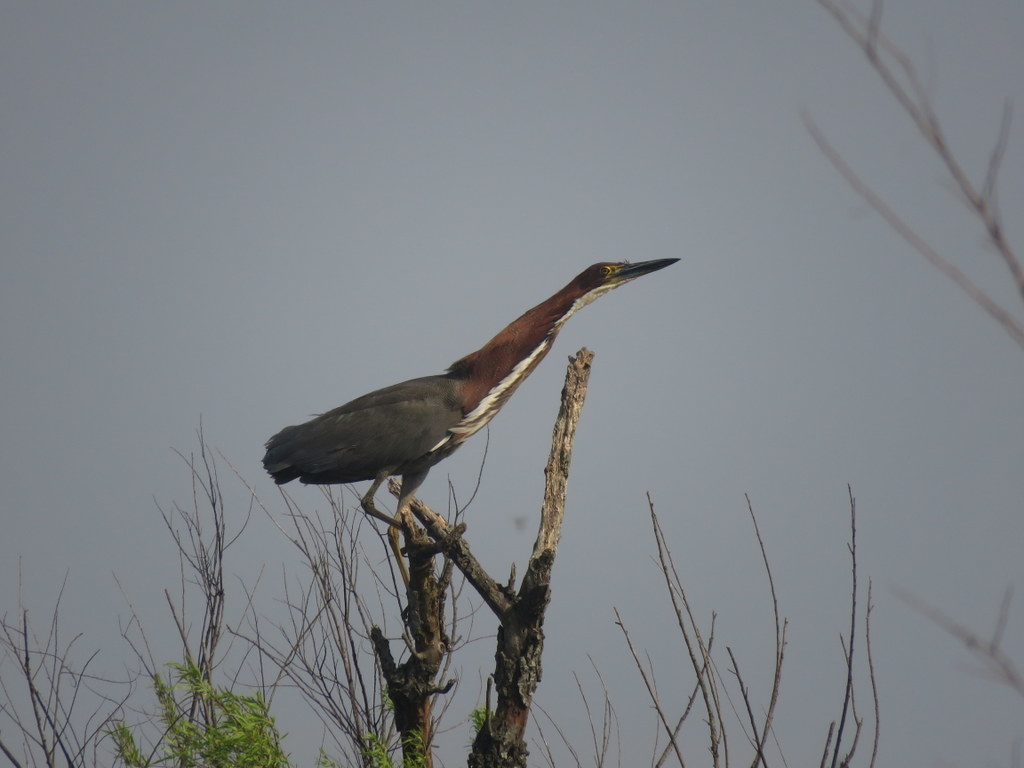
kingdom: Animalia
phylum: Chordata
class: Aves
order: Pelecaniformes
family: Ardeidae
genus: Tigrisoma
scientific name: Tigrisoma lineatum
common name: Rufescent tiger-heron
